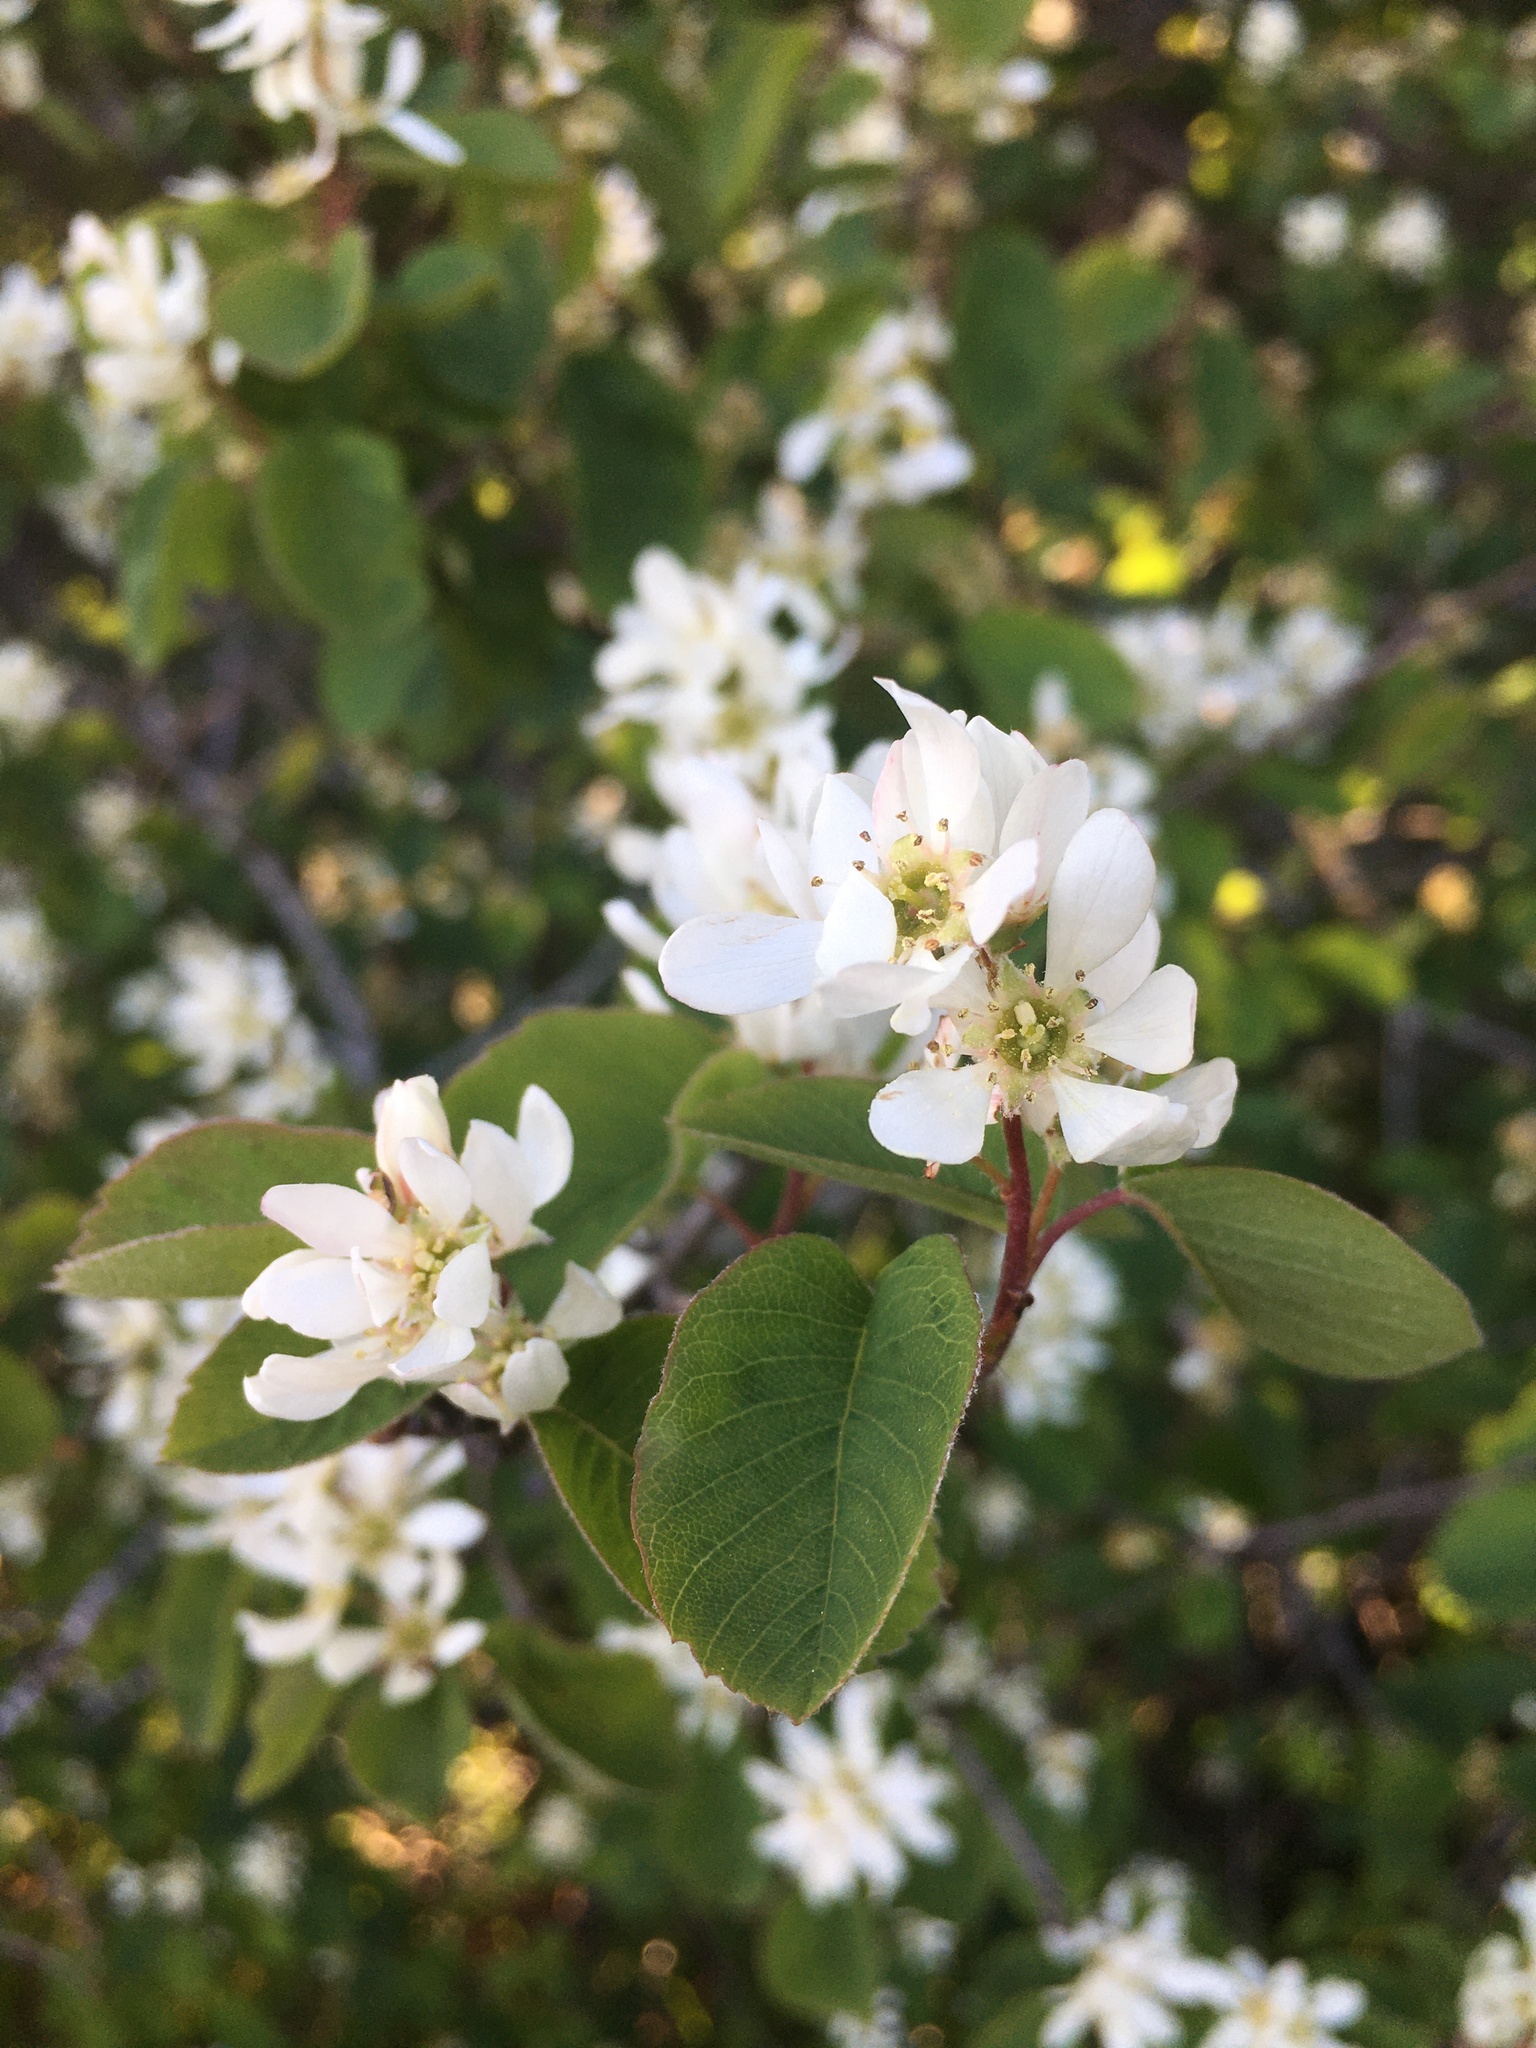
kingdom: Plantae
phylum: Tracheophyta
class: Magnoliopsida
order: Rosales
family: Rosaceae
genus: Amelanchier
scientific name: Amelanchier alnifolia
